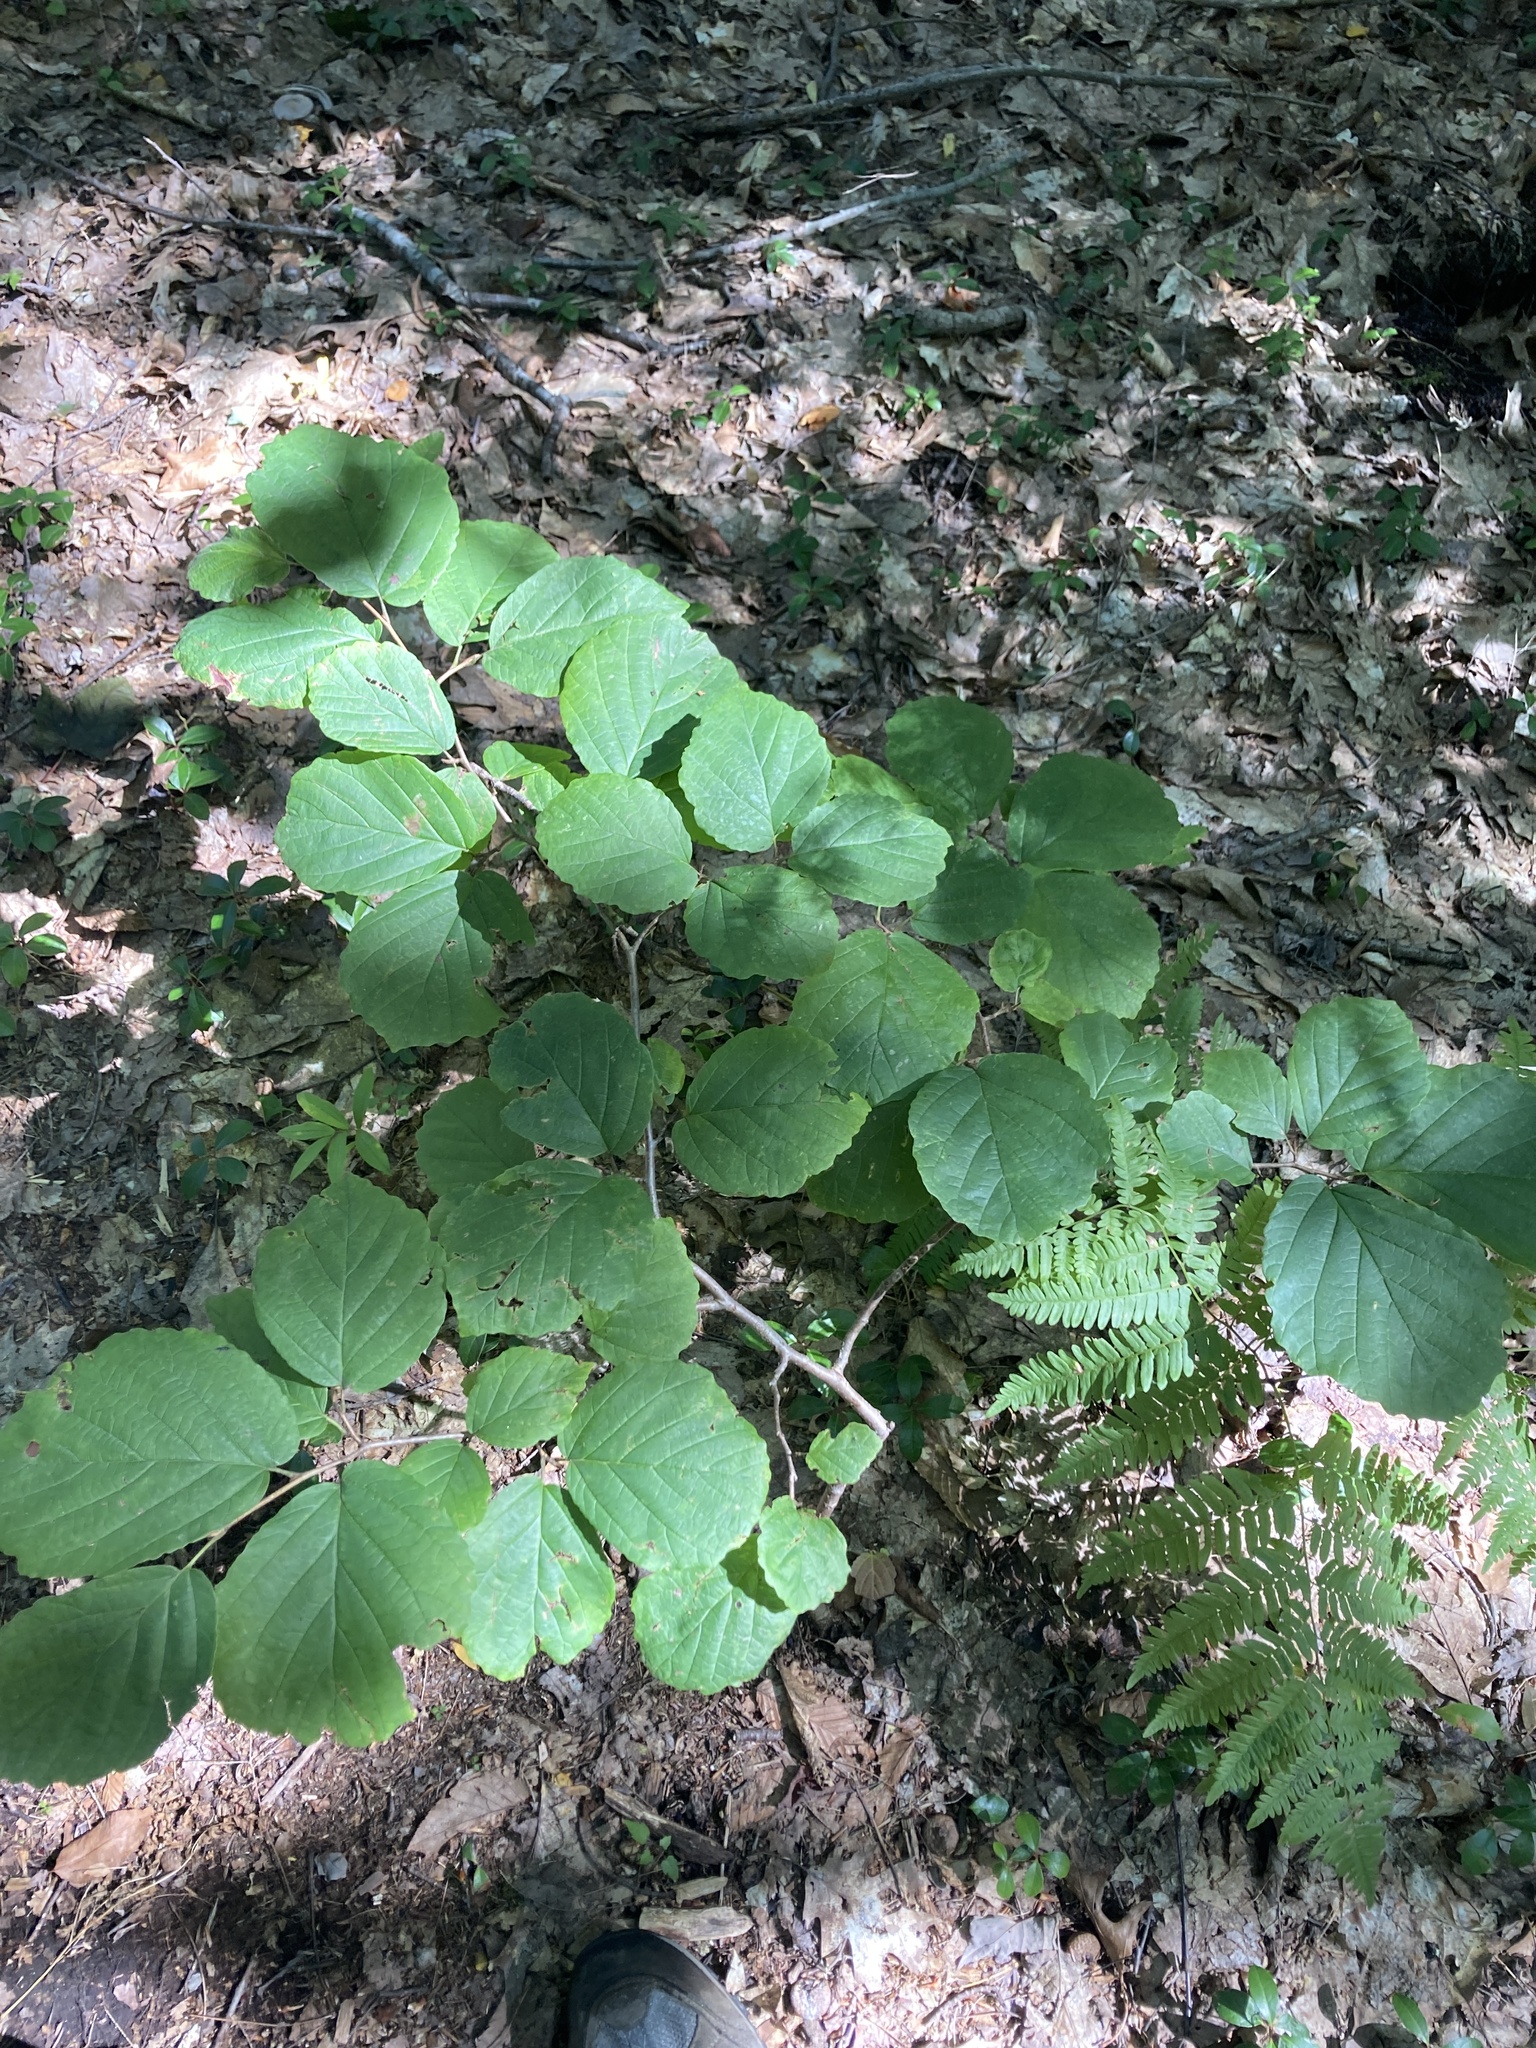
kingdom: Plantae
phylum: Tracheophyta
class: Magnoliopsida
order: Saxifragales
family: Hamamelidaceae
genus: Hamamelis
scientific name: Hamamelis virginiana
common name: Witch-hazel
